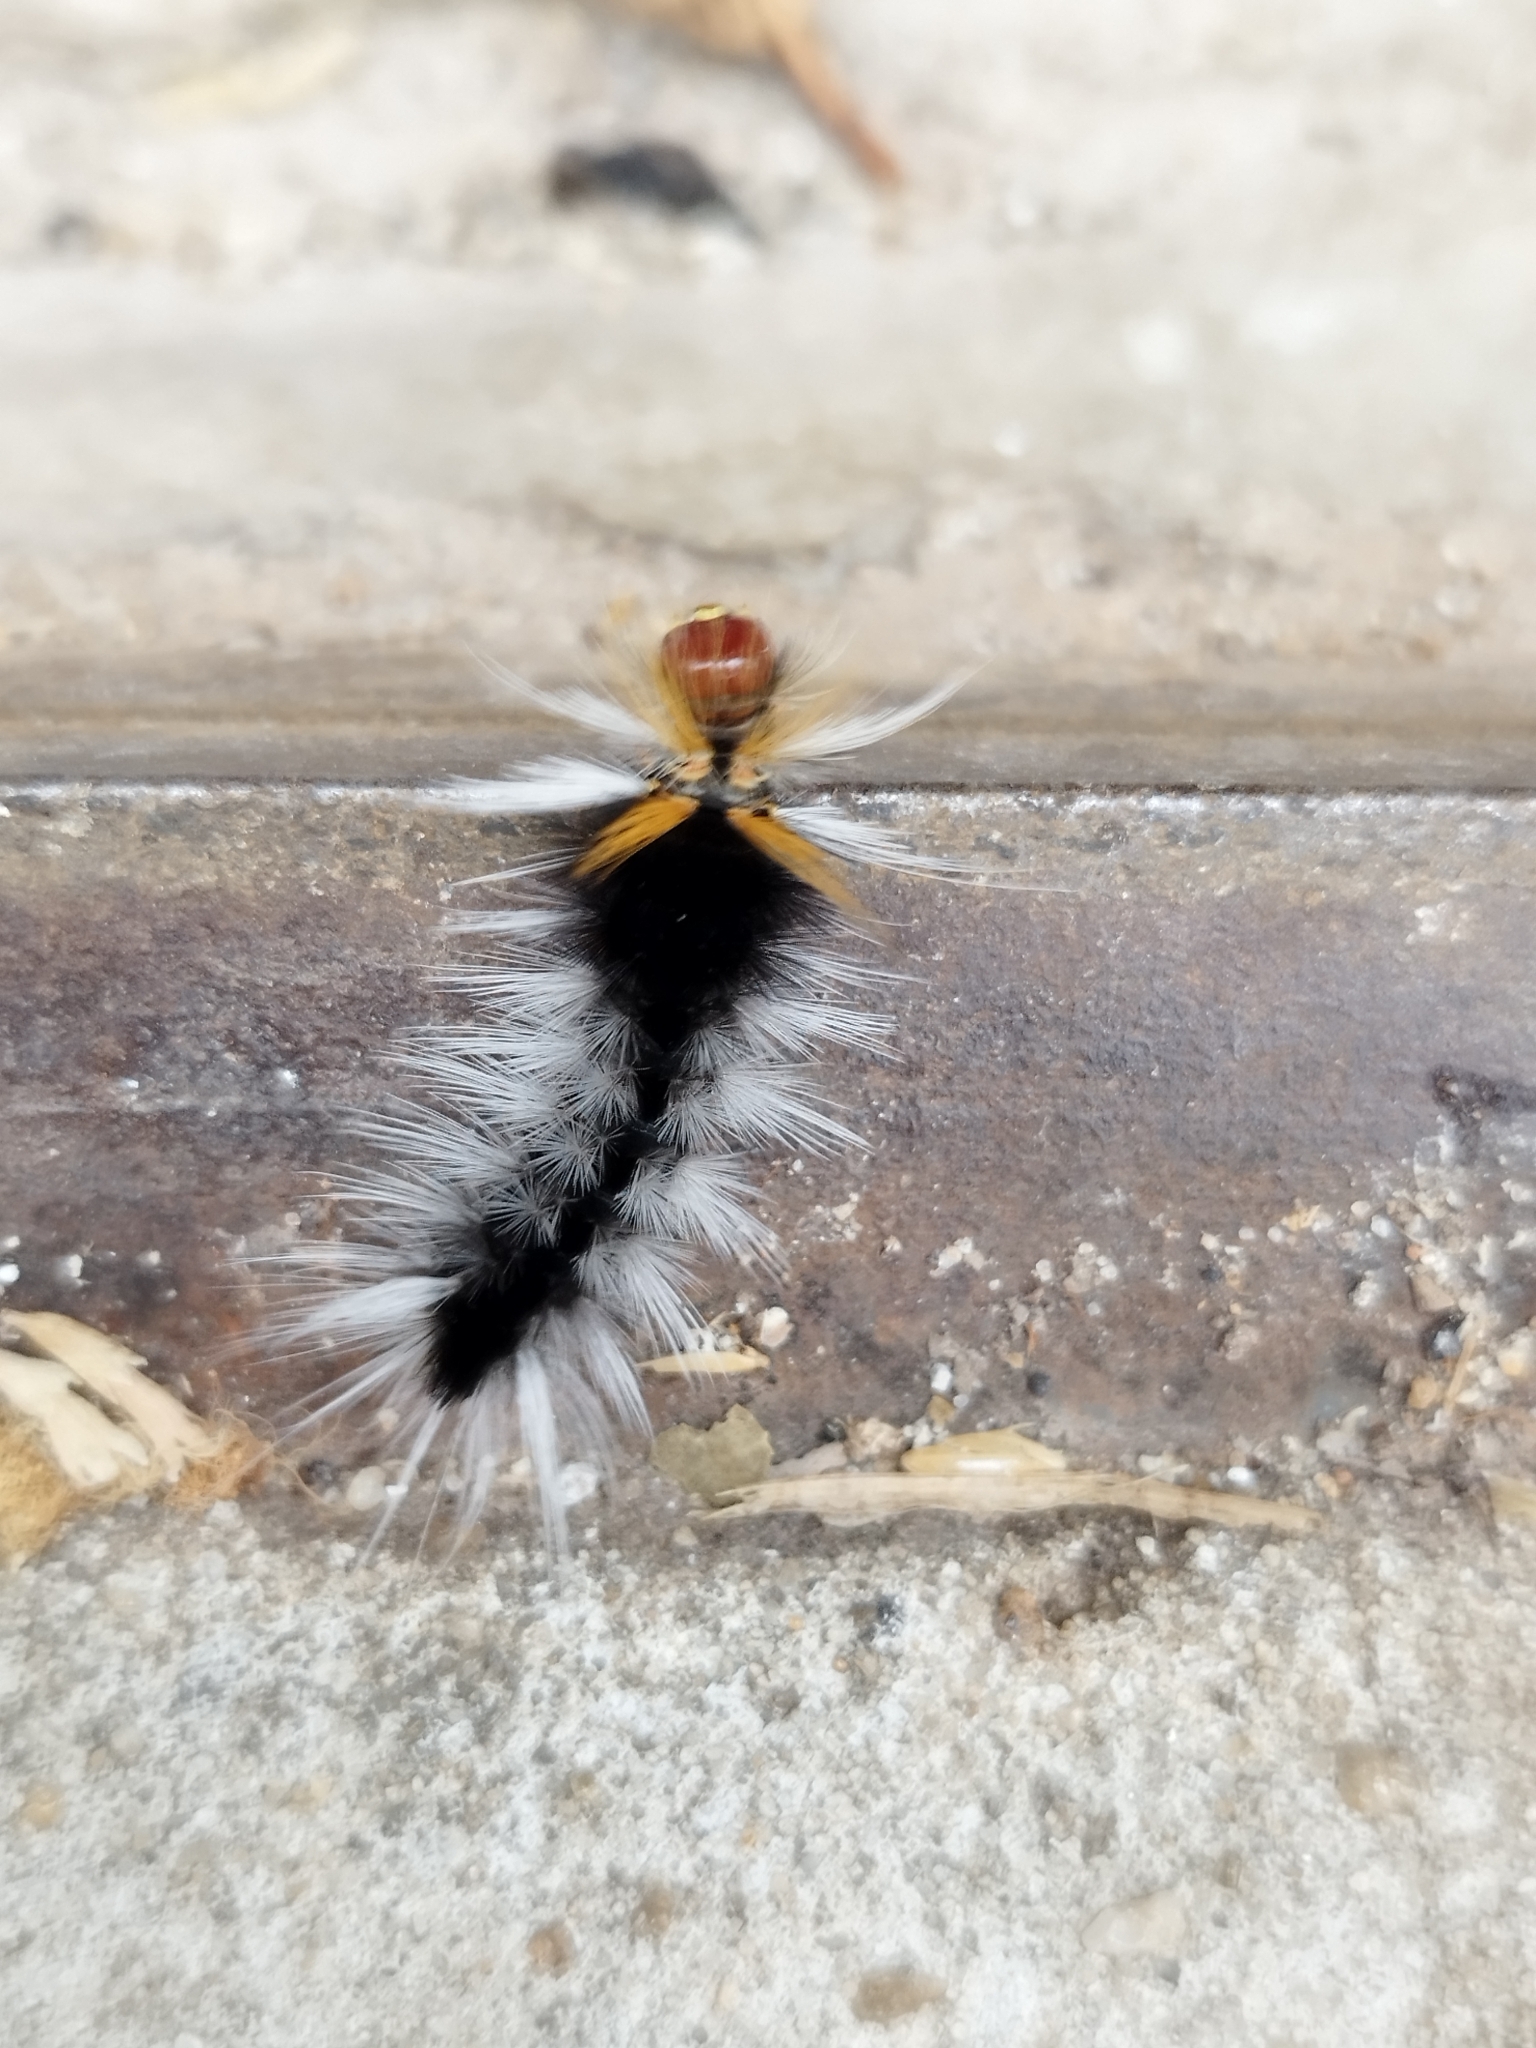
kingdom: Animalia
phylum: Arthropoda
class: Insecta
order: Lepidoptera
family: Erebidae
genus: Halysidota
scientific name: Halysidota ruscheweyhi
